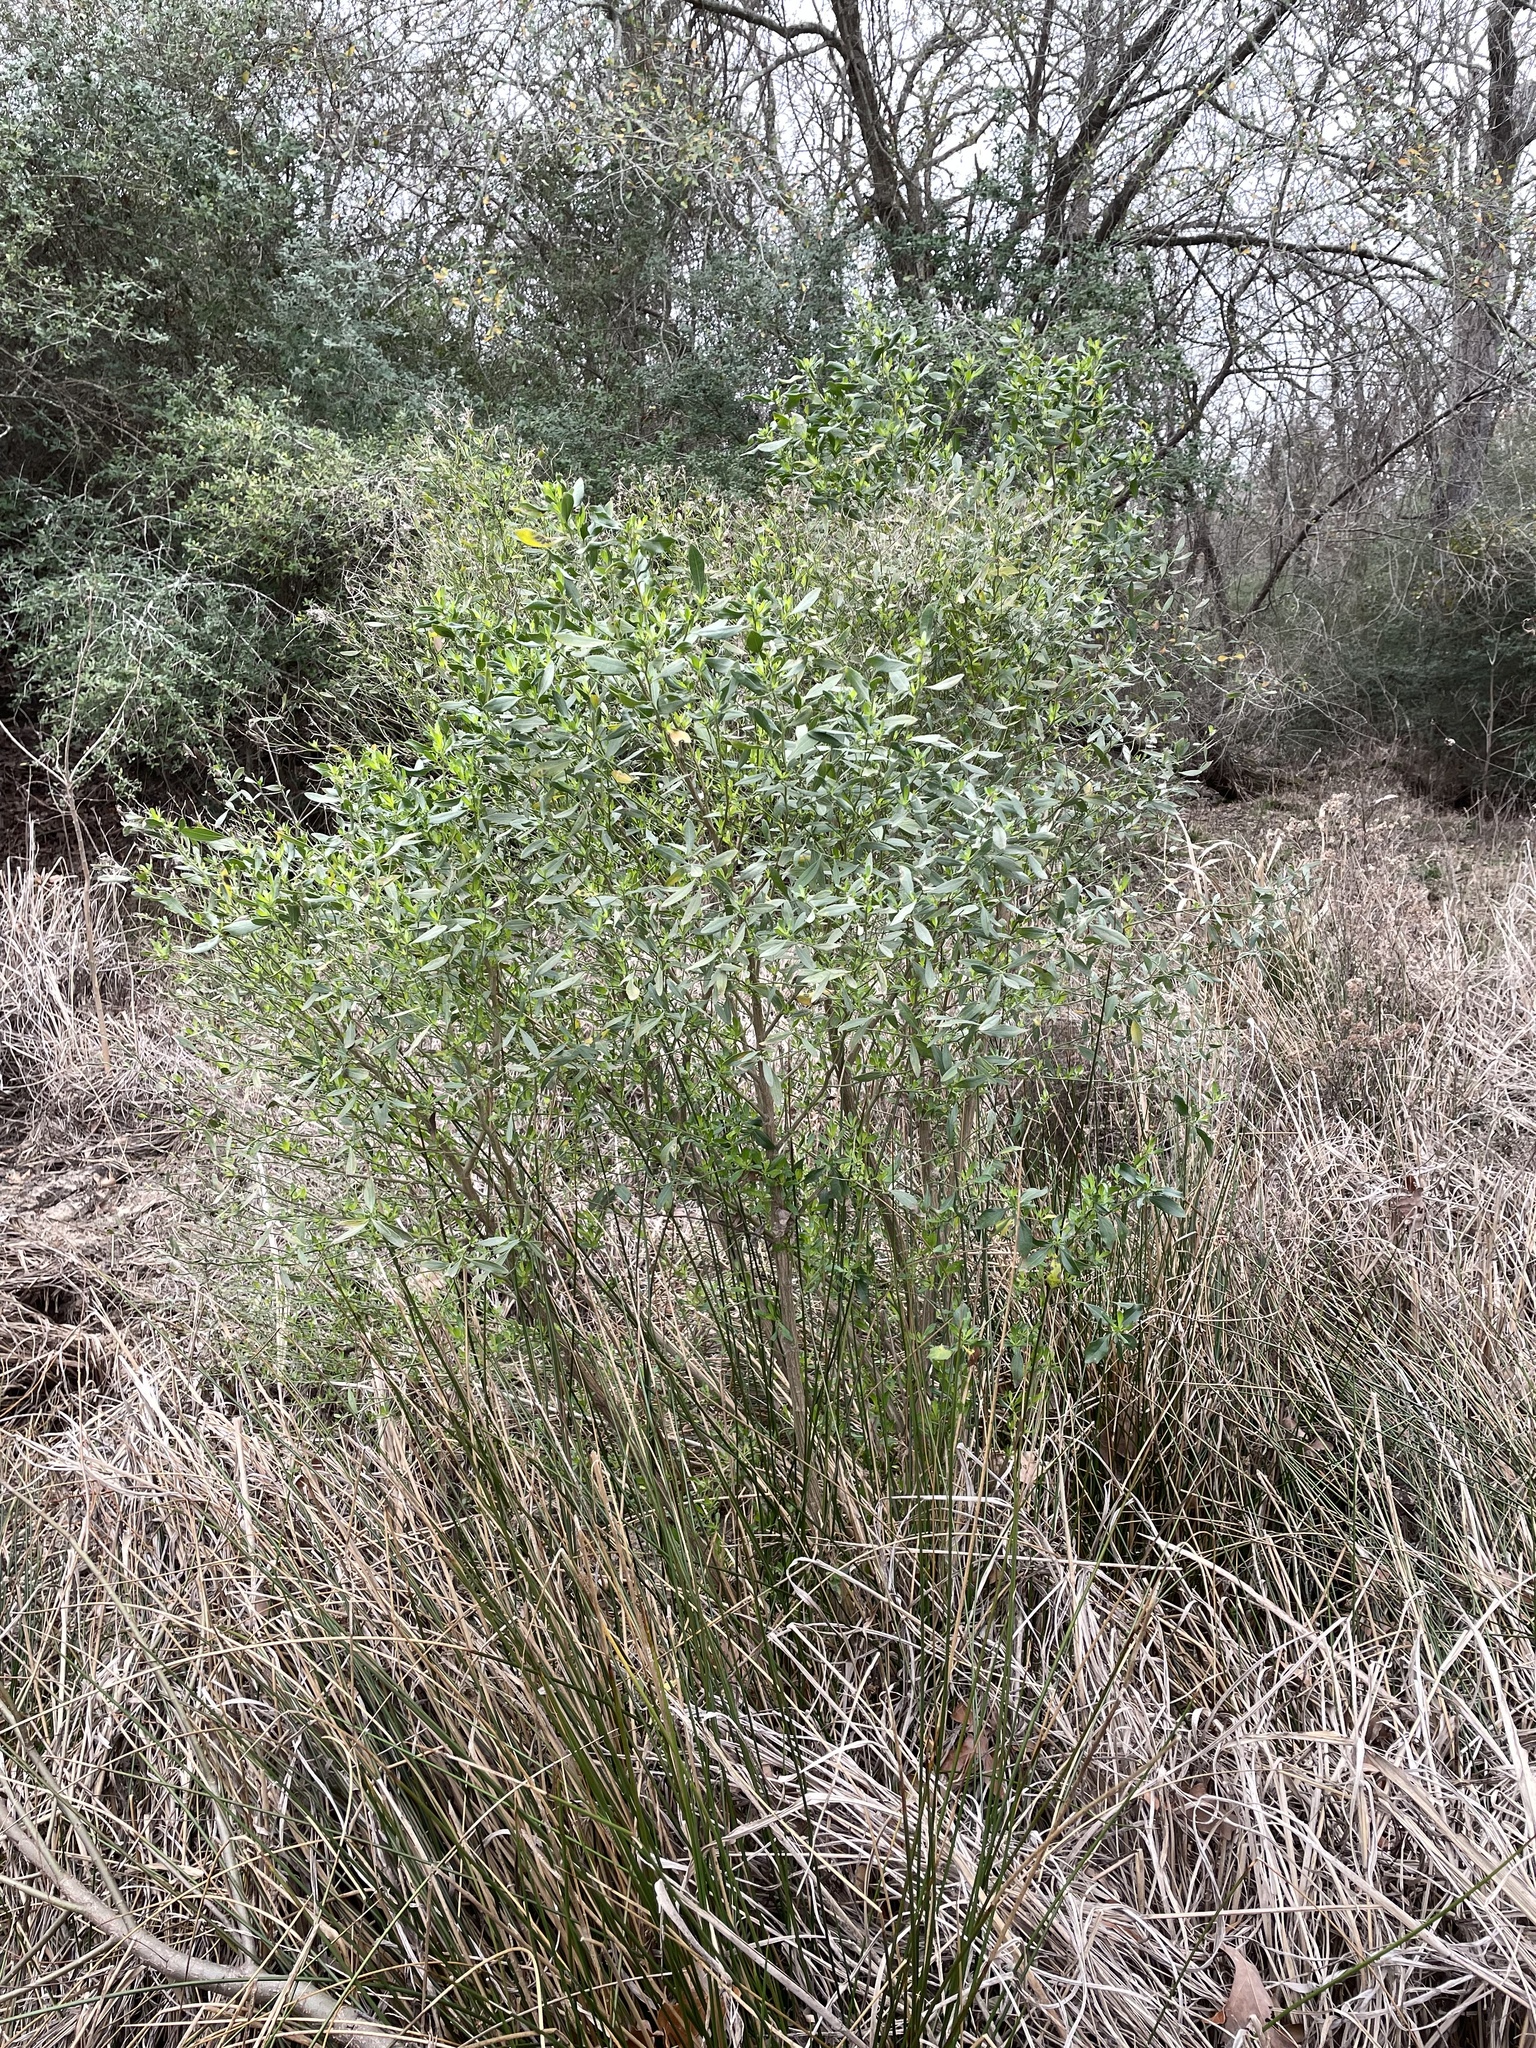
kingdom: Plantae
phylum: Tracheophyta
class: Magnoliopsida
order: Asterales
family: Asteraceae
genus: Baccharis
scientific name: Baccharis halimifolia
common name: Eastern baccharis
